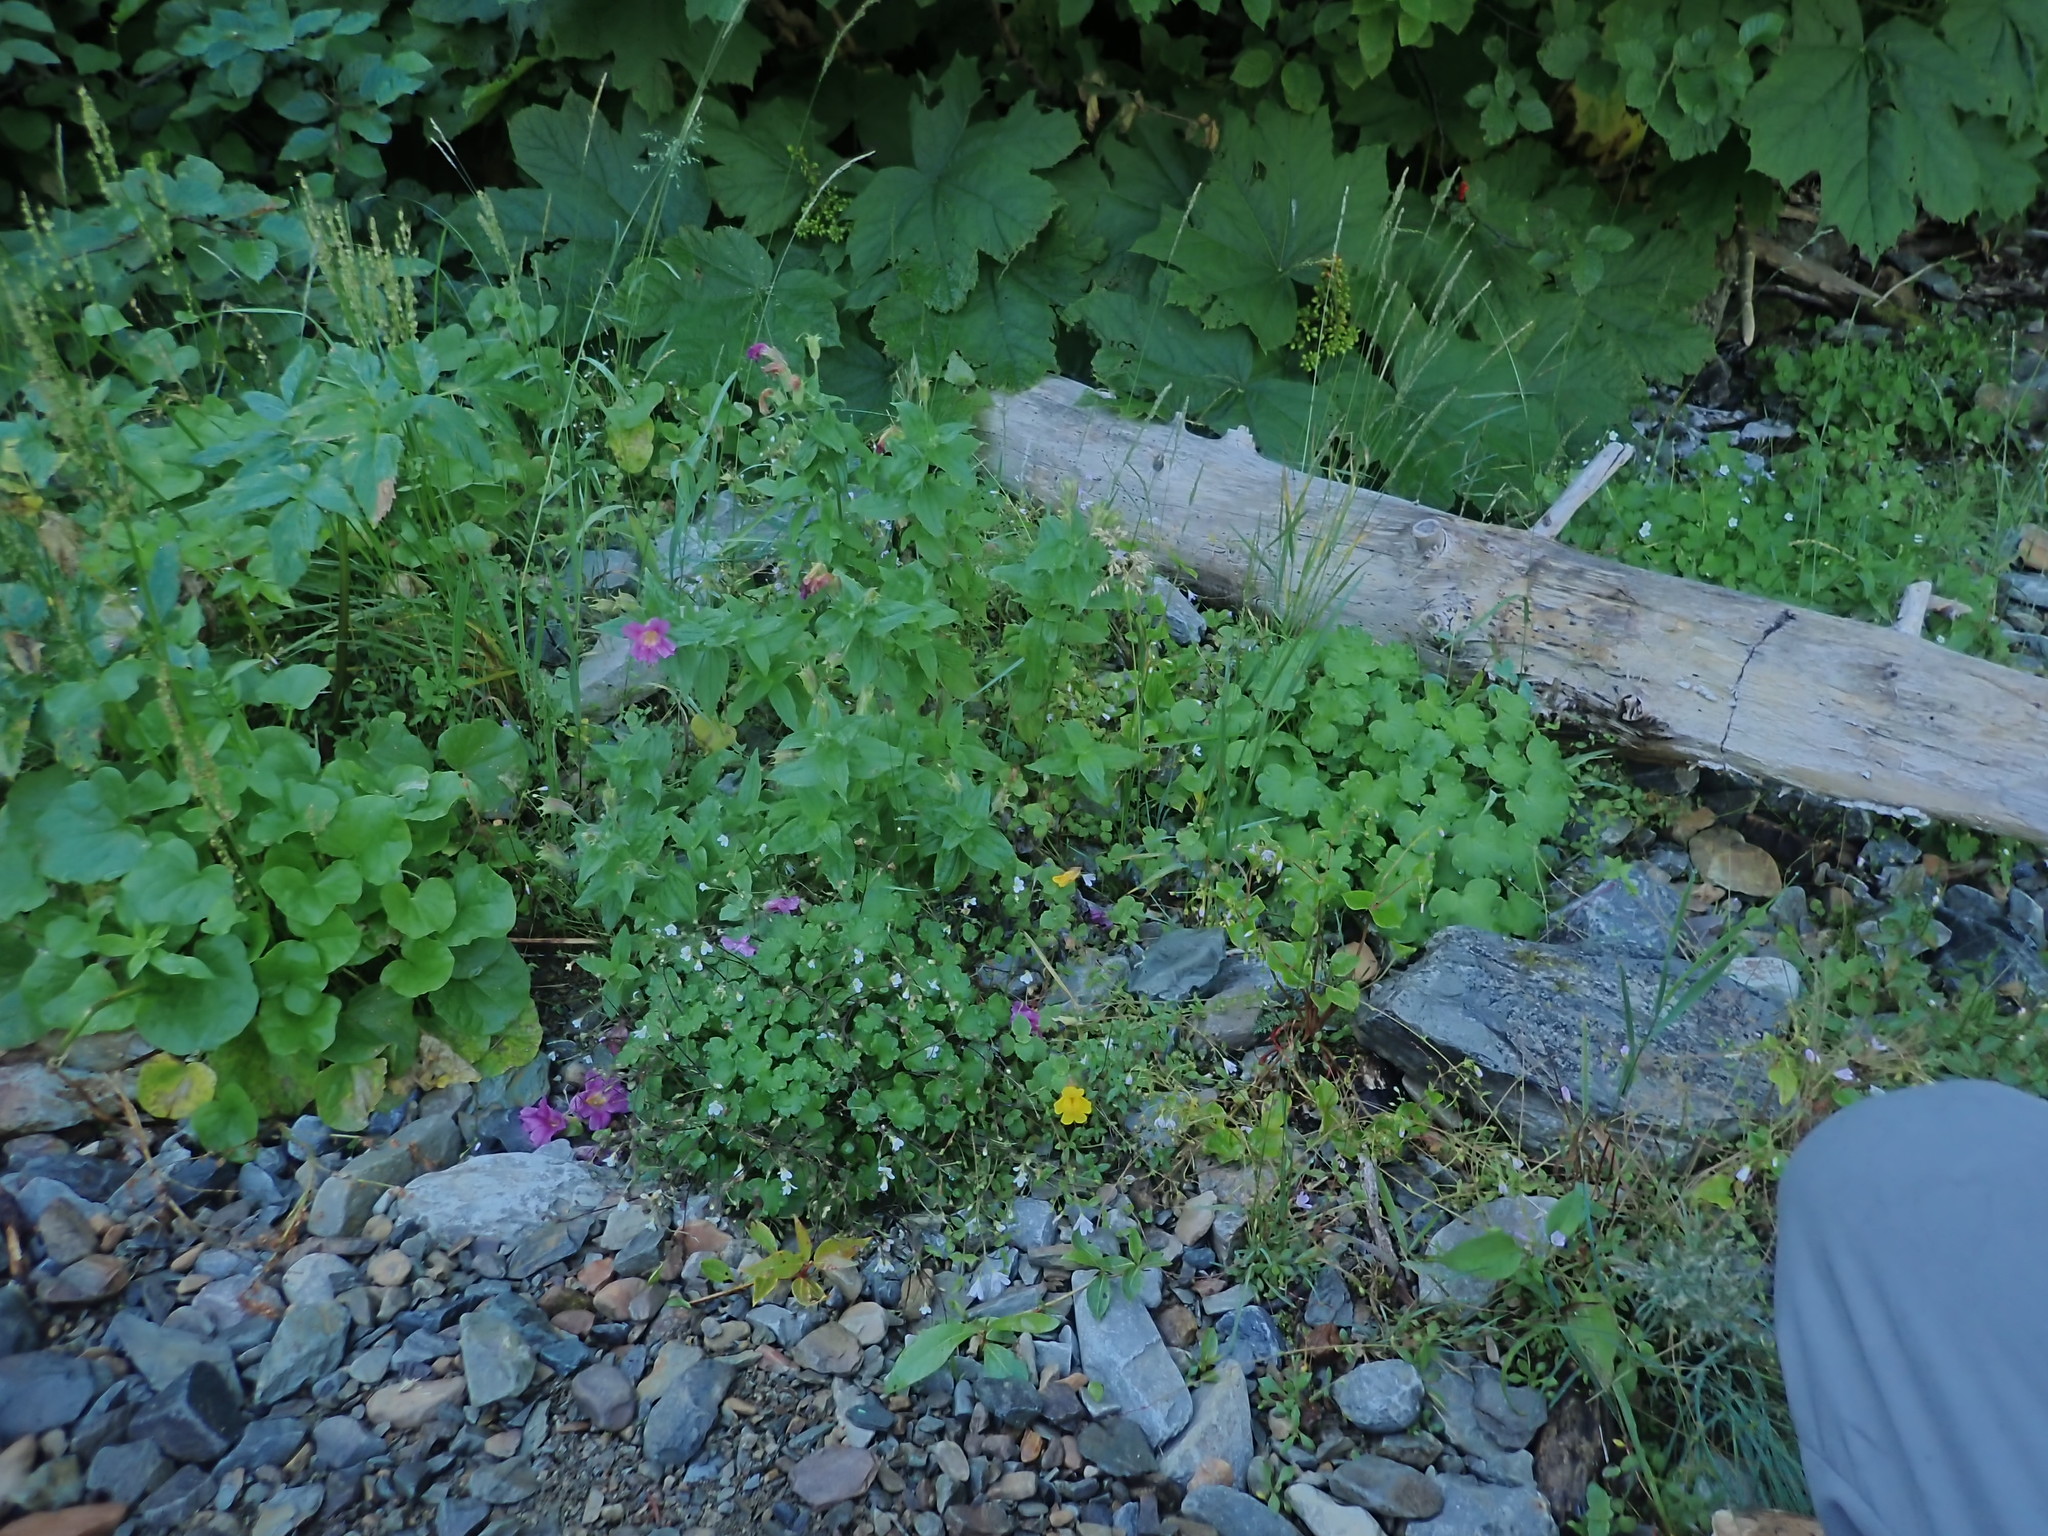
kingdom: Plantae
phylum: Tracheophyta
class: Magnoliopsida
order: Boraginales
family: Hydrophyllaceae
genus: Romanzoffia
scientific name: Romanzoffia sitchensis
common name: Sitka mistmaid
